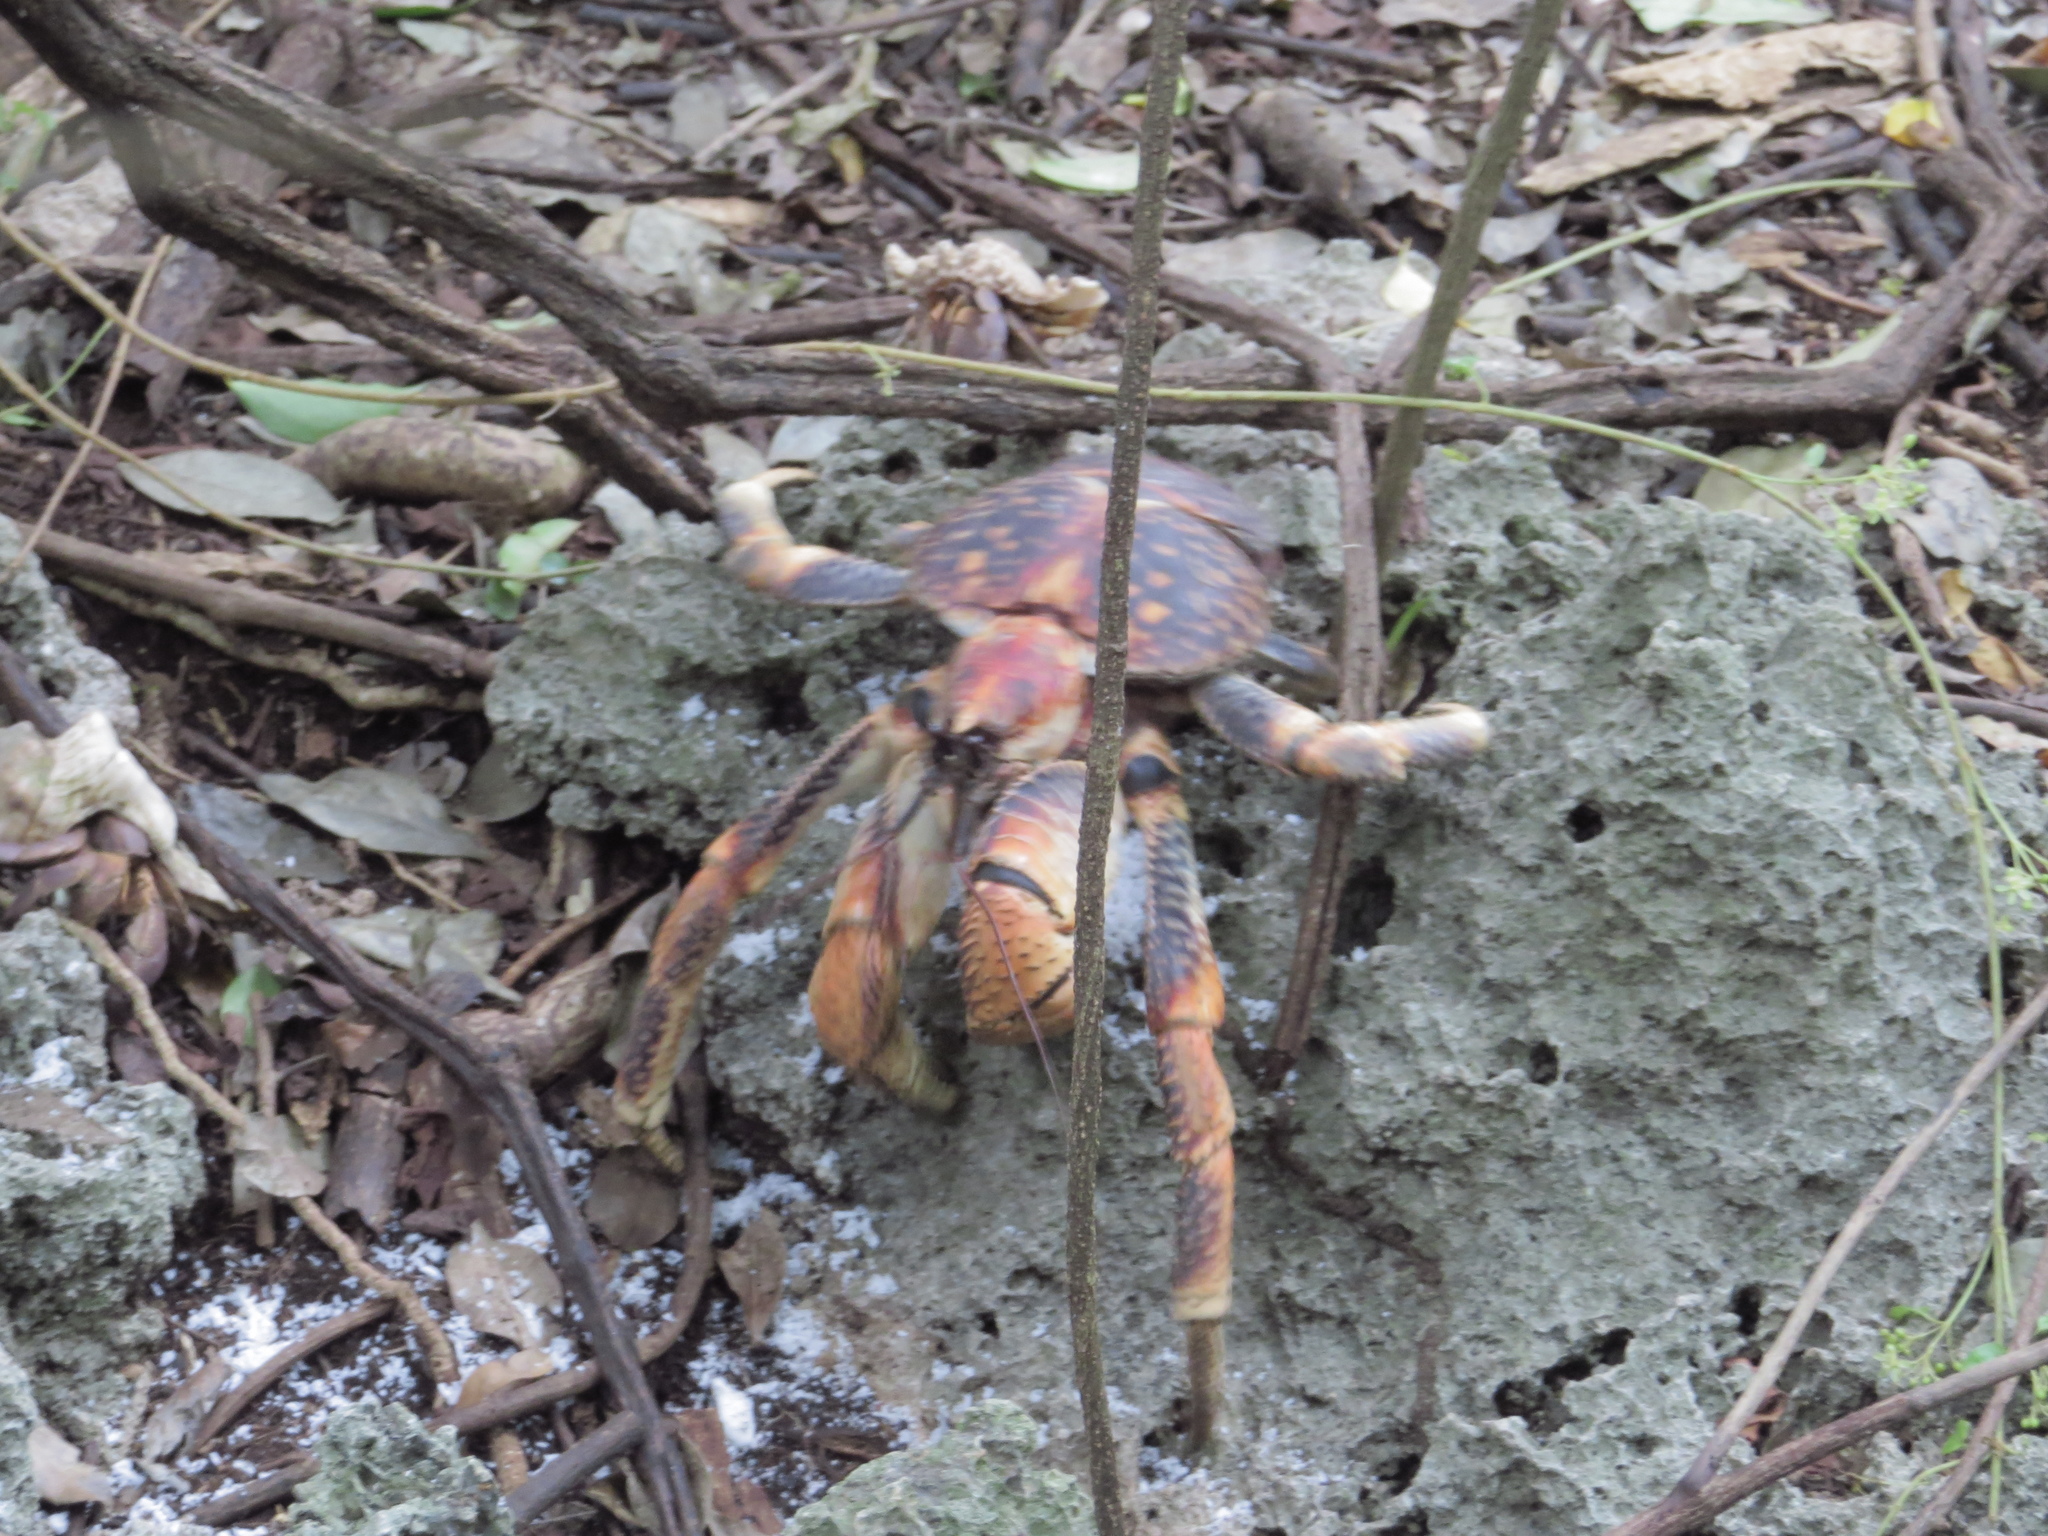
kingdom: Animalia
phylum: Arthropoda
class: Malacostraca
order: Decapoda
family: Coenobitidae
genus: Birgus
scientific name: Birgus latro
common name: Coconut crab
